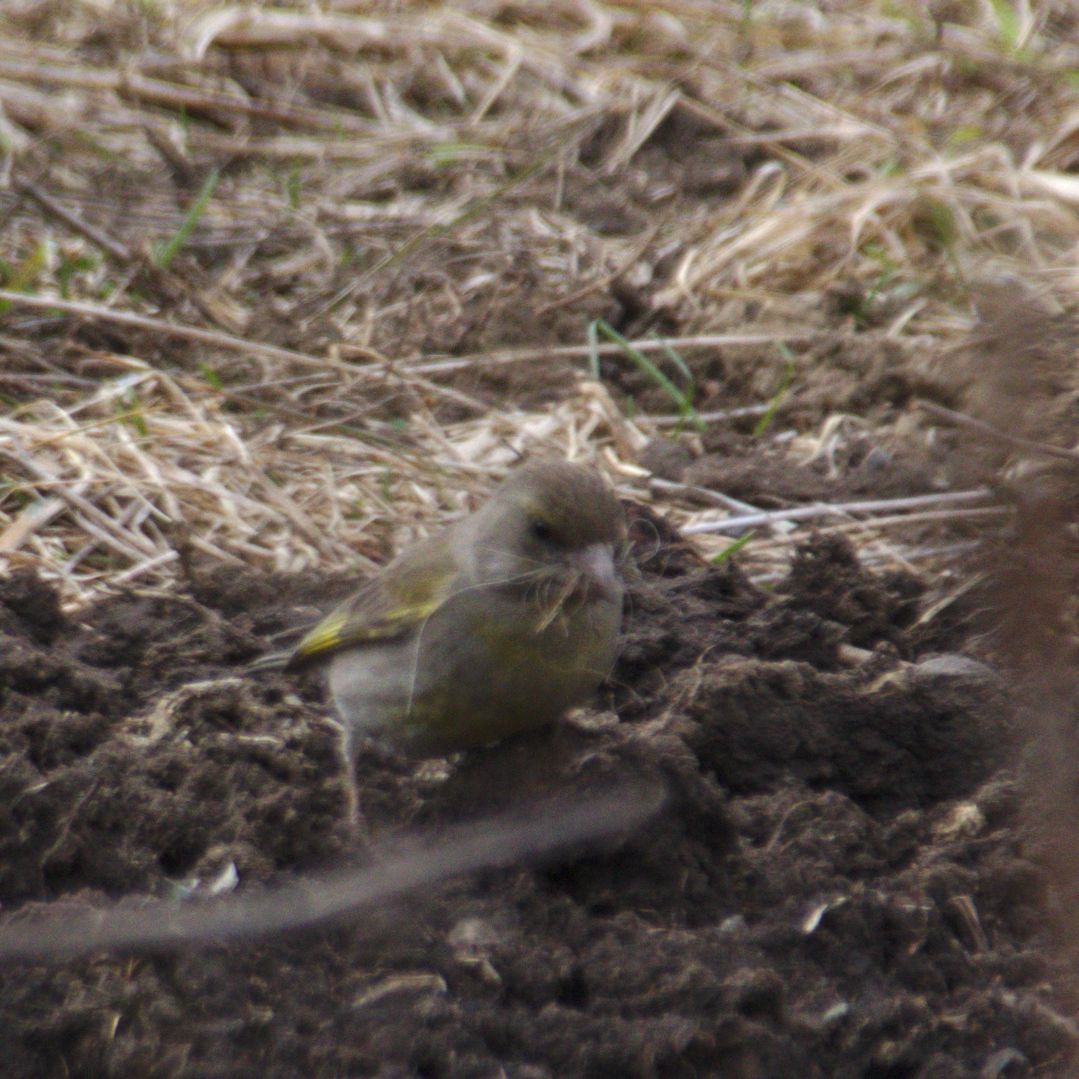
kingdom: Plantae
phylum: Tracheophyta
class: Liliopsida
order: Poales
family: Poaceae
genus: Chloris
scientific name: Chloris chloris
